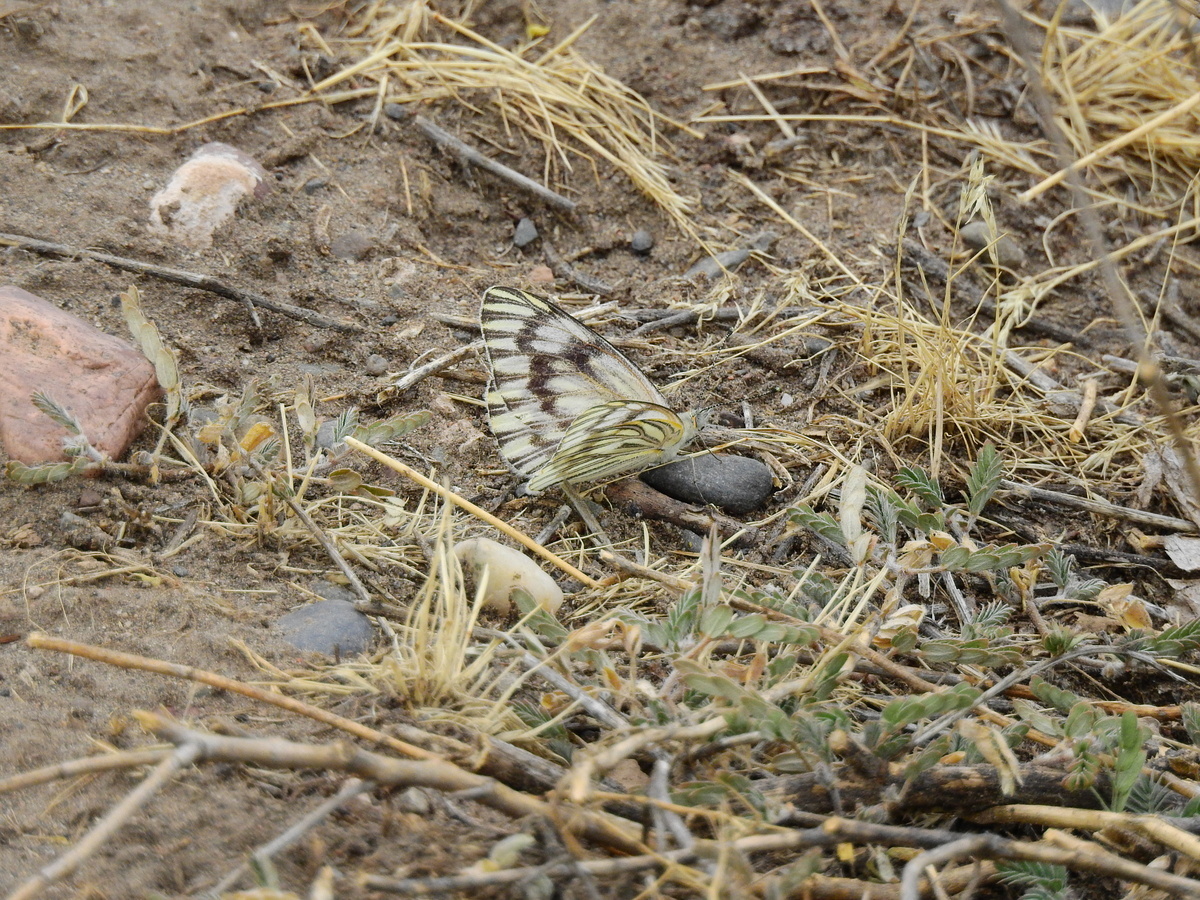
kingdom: Animalia
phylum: Arthropoda
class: Insecta
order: Lepidoptera
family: Pieridae
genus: Tatochila
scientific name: Tatochila mercedis
